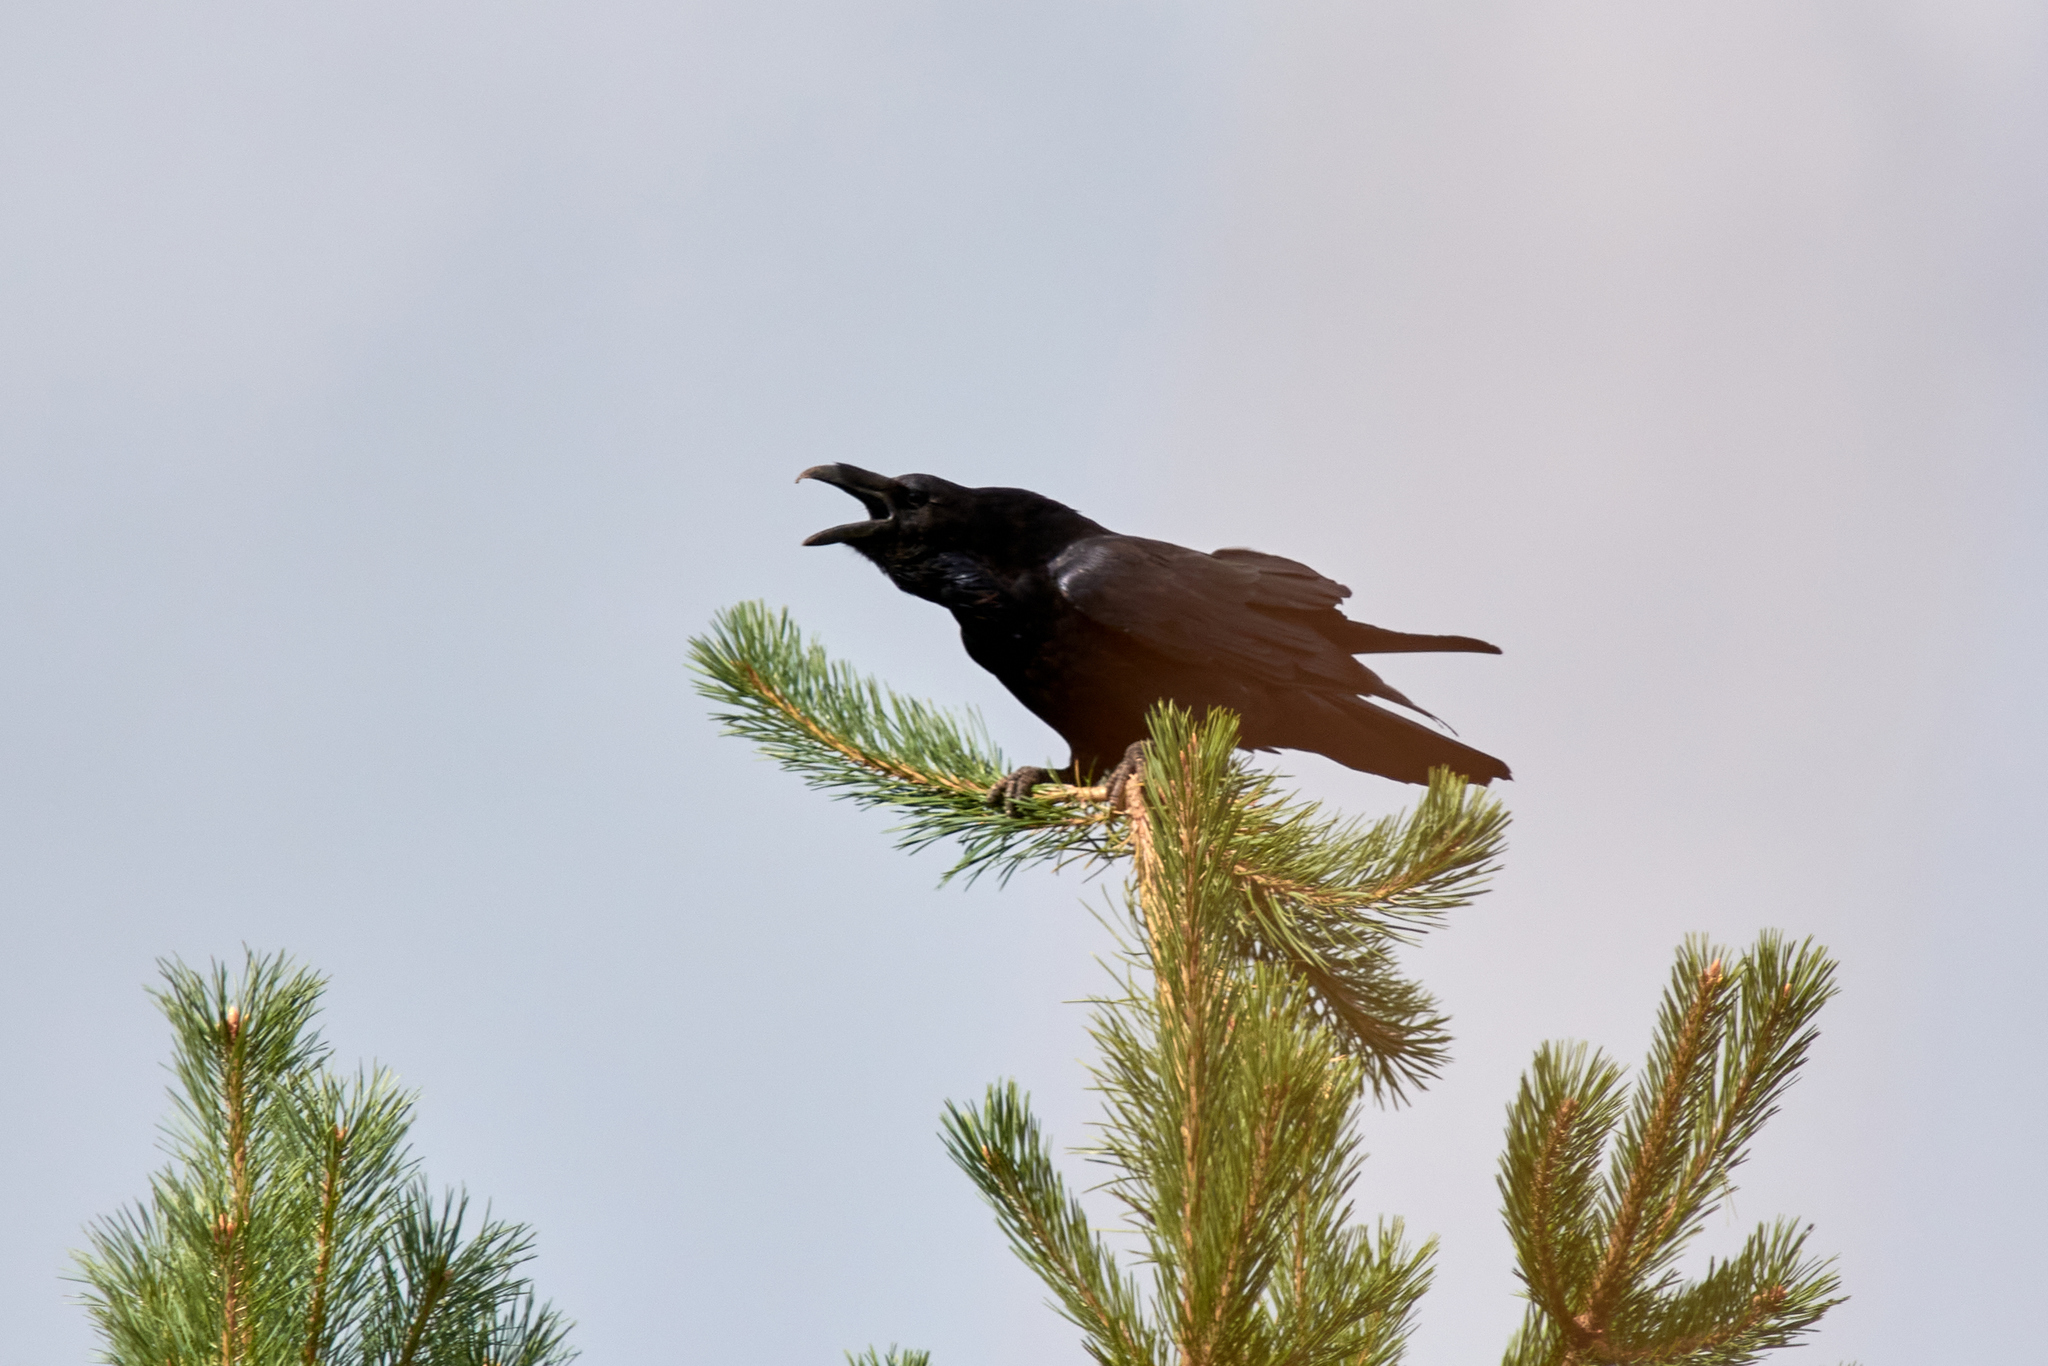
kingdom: Animalia
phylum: Chordata
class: Aves
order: Passeriformes
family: Corvidae
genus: Corvus
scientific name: Corvus corax
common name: Common raven
